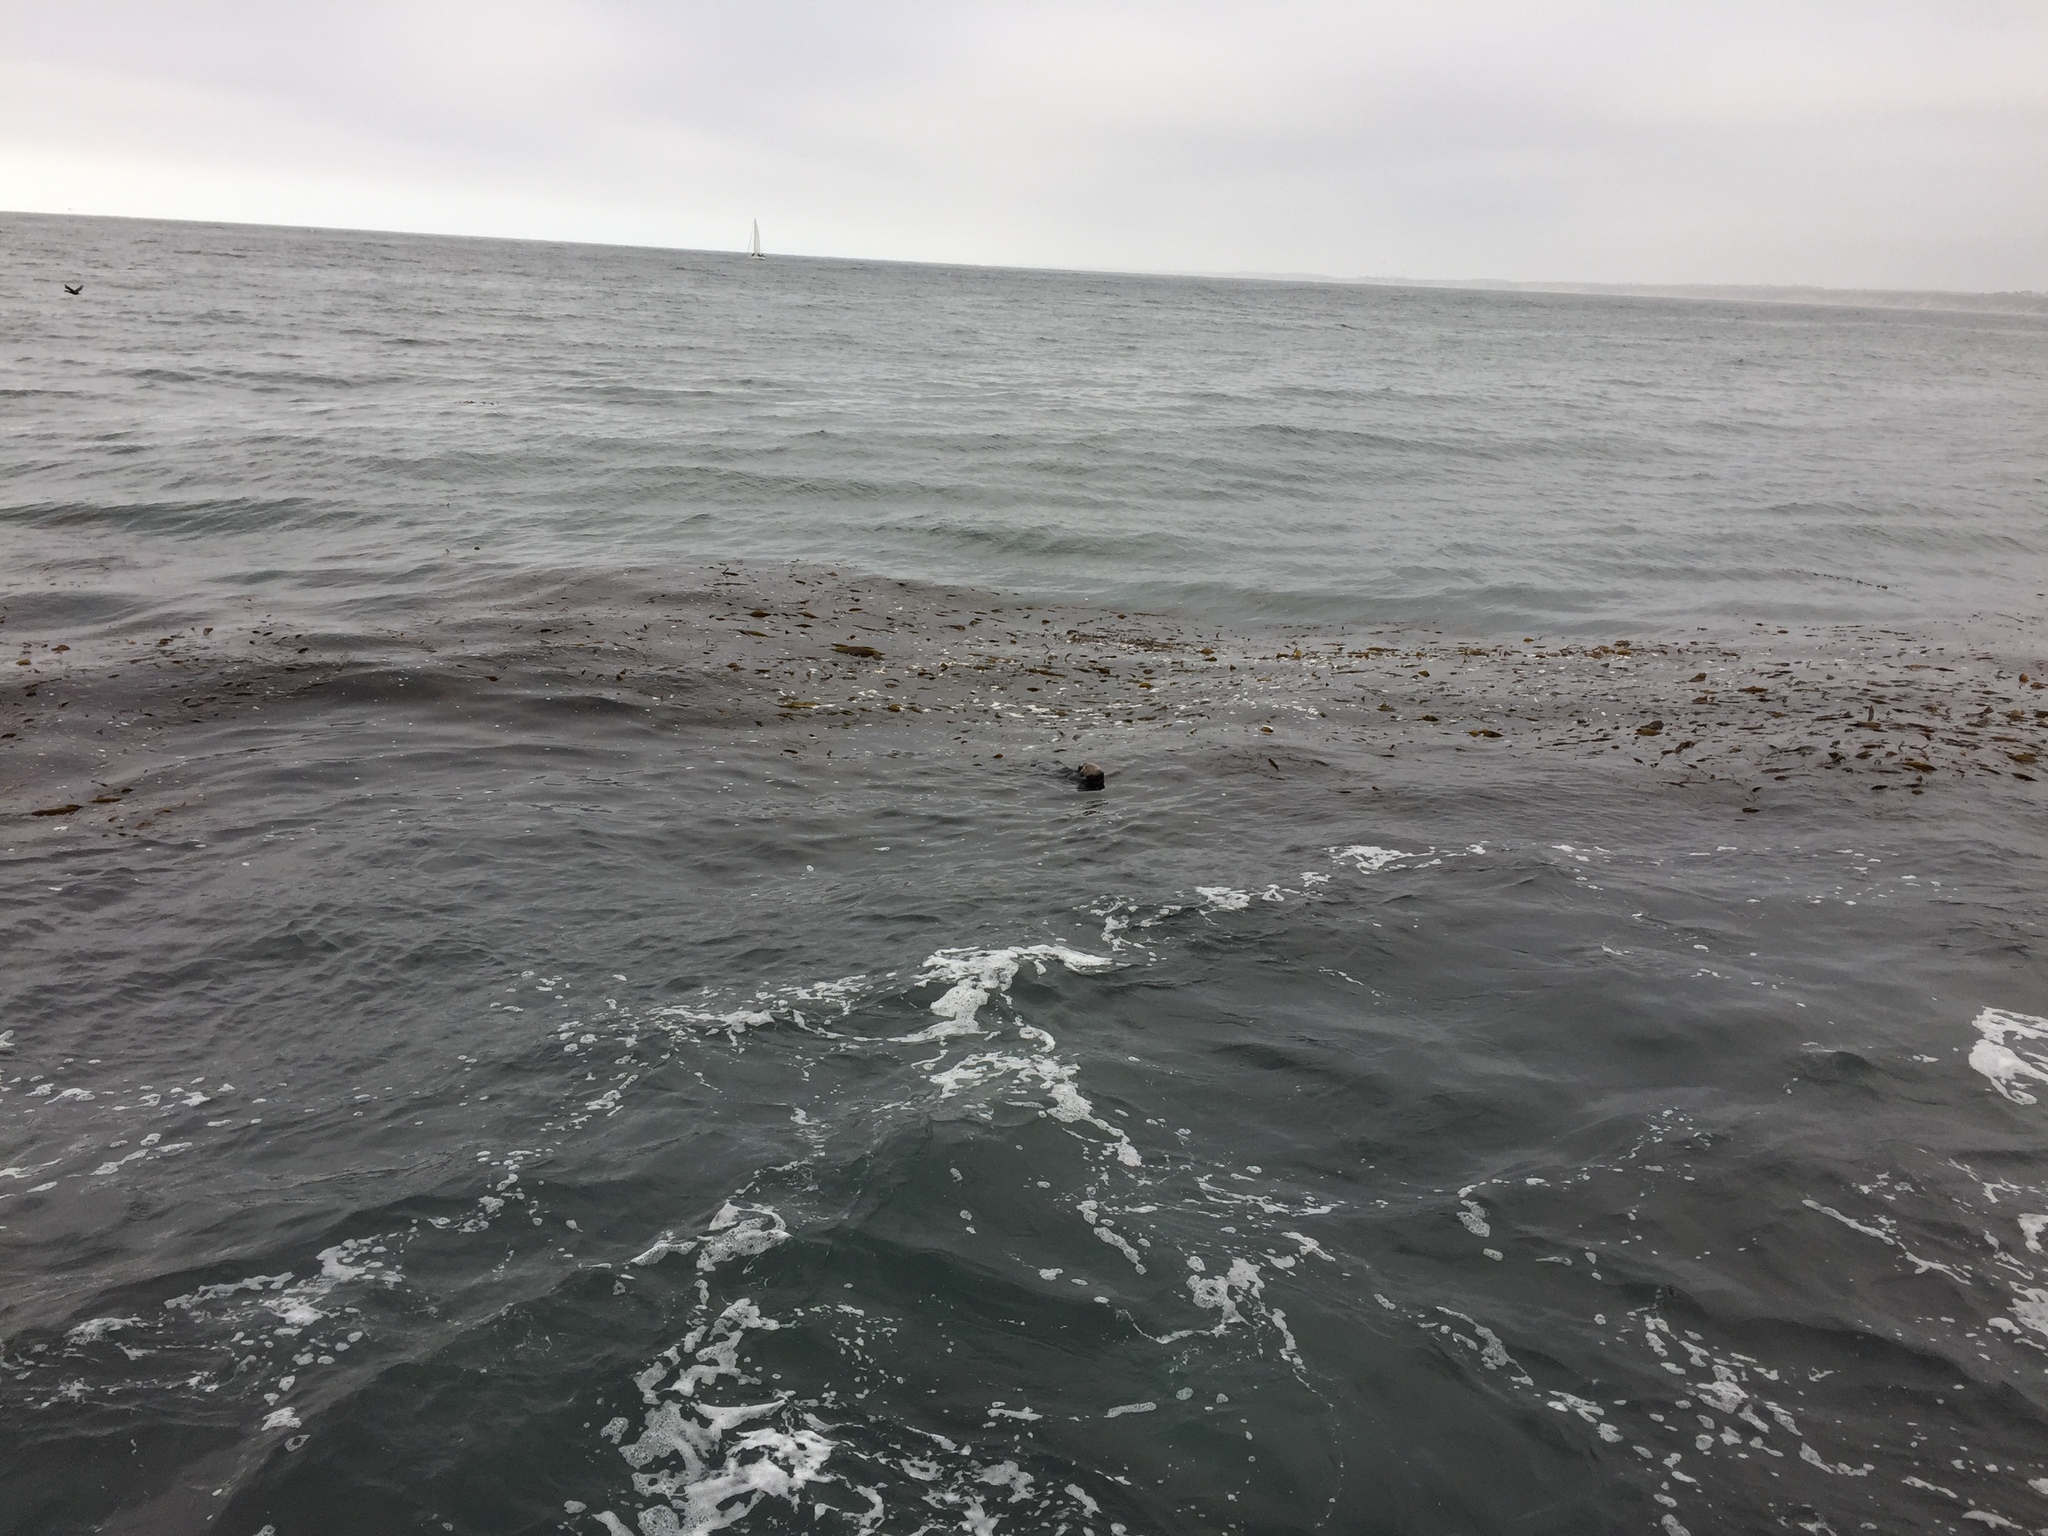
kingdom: Animalia
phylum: Chordata
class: Mammalia
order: Carnivora
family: Mustelidae
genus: Enhydra
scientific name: Enhydra lutris
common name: Sea otter
